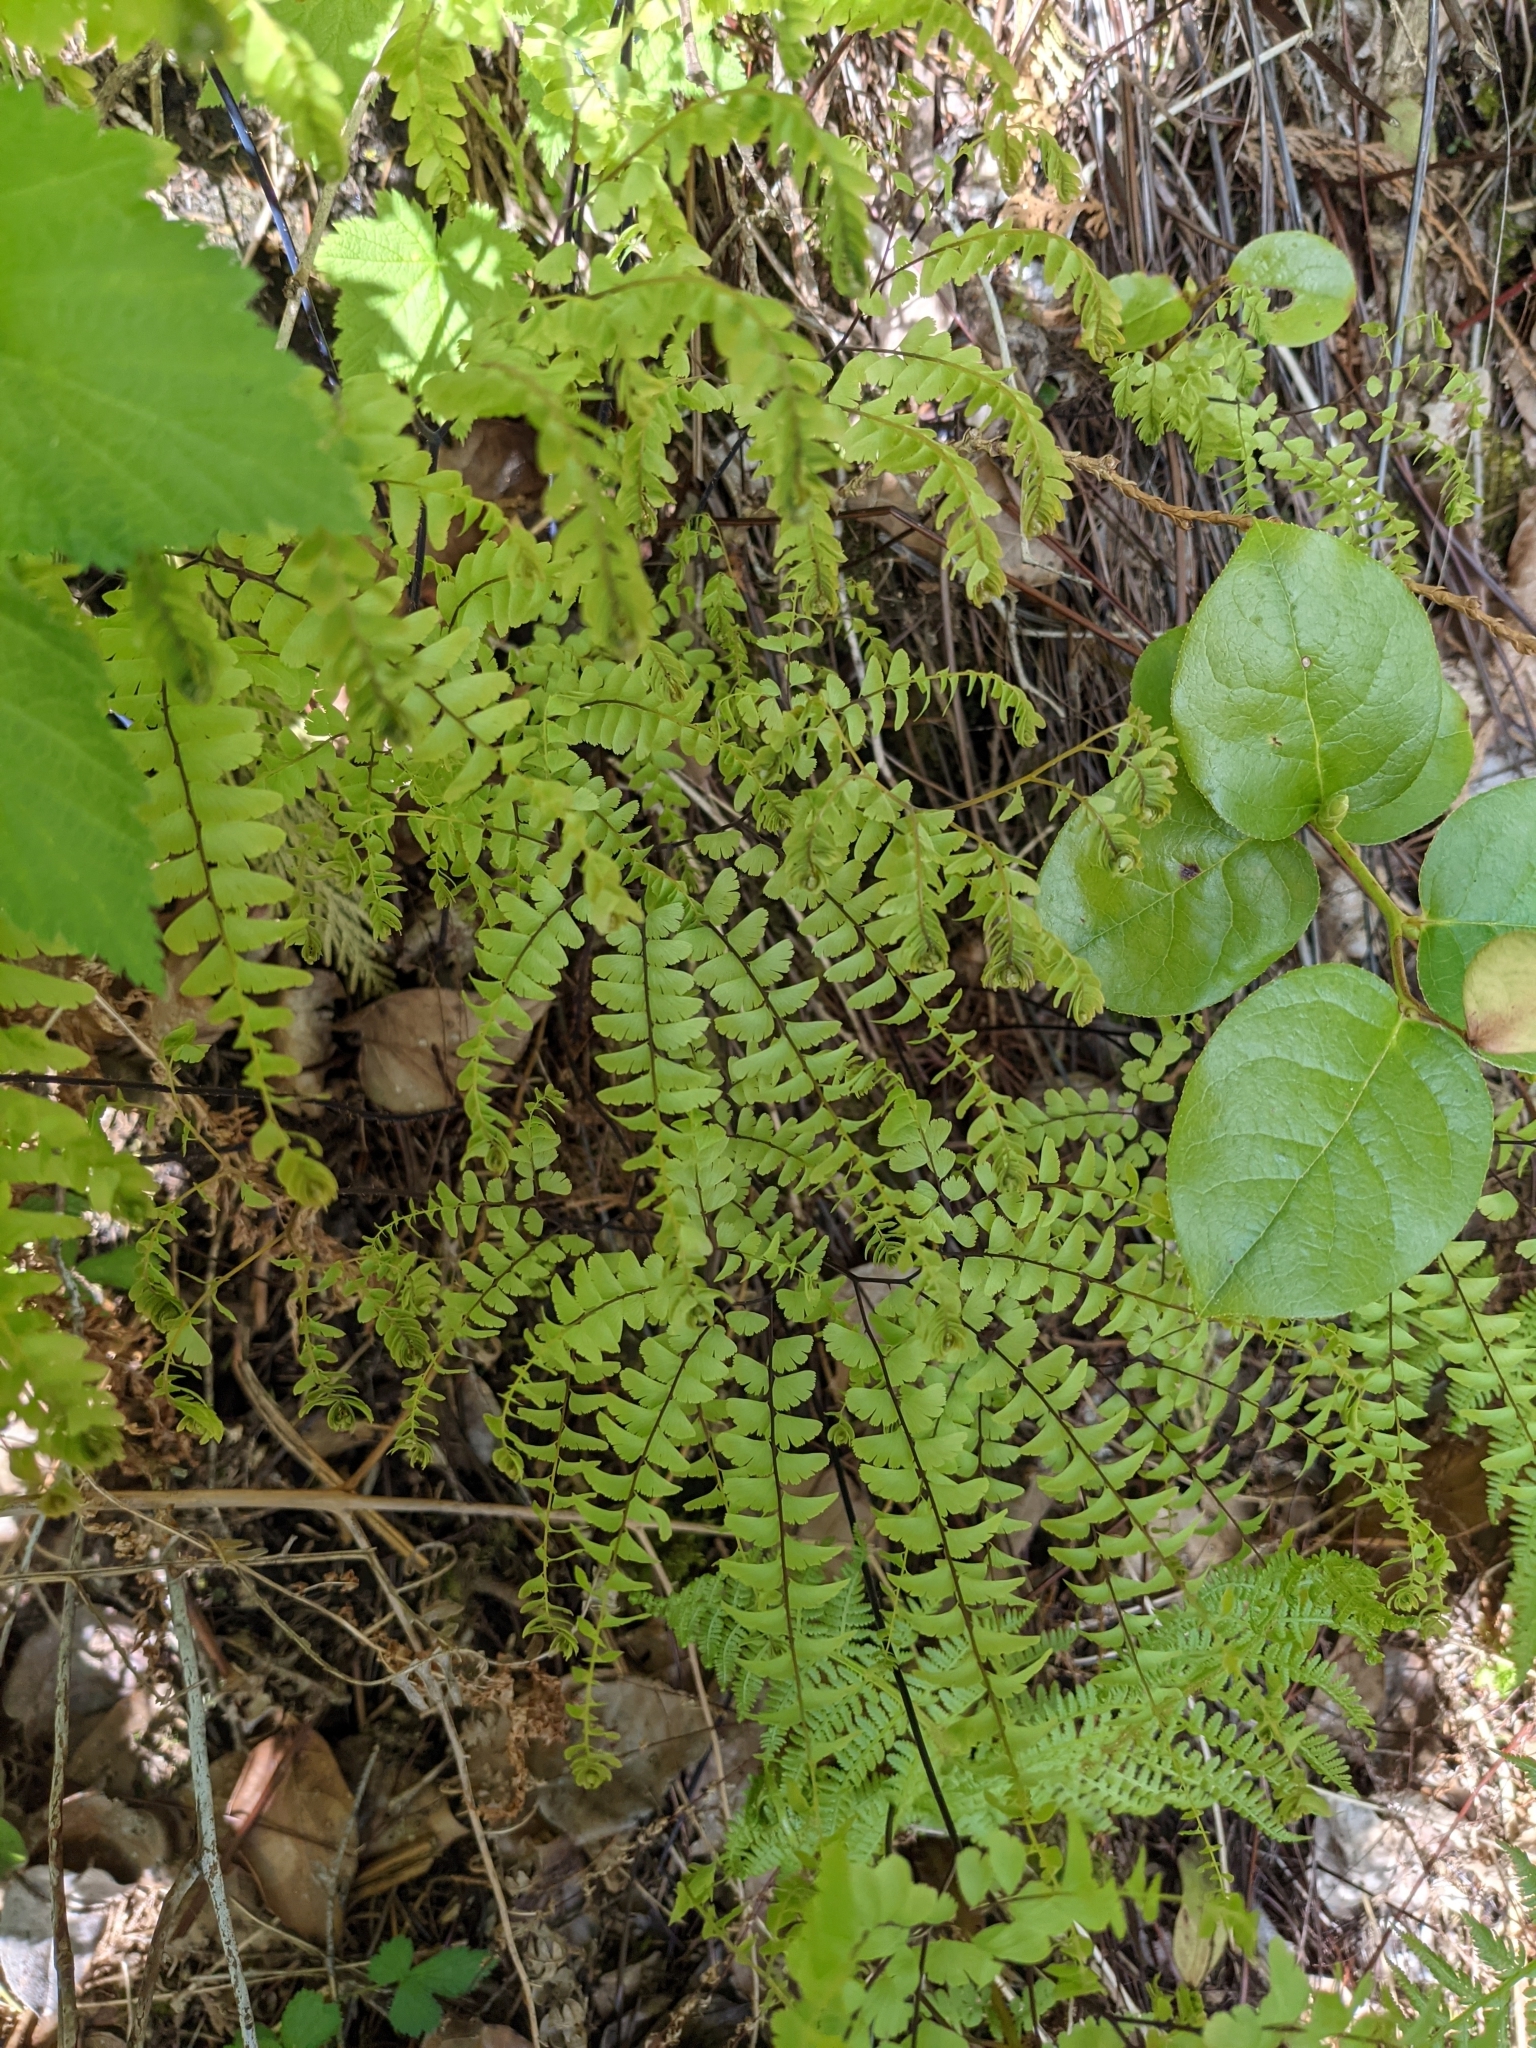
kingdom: Plantae
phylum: Tracheophyta
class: Polypodiopsida
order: Polypodiales
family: Pteridaceae
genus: Adiantum
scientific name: Adiantum aleuticum
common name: Aleutian maidenhair fern
